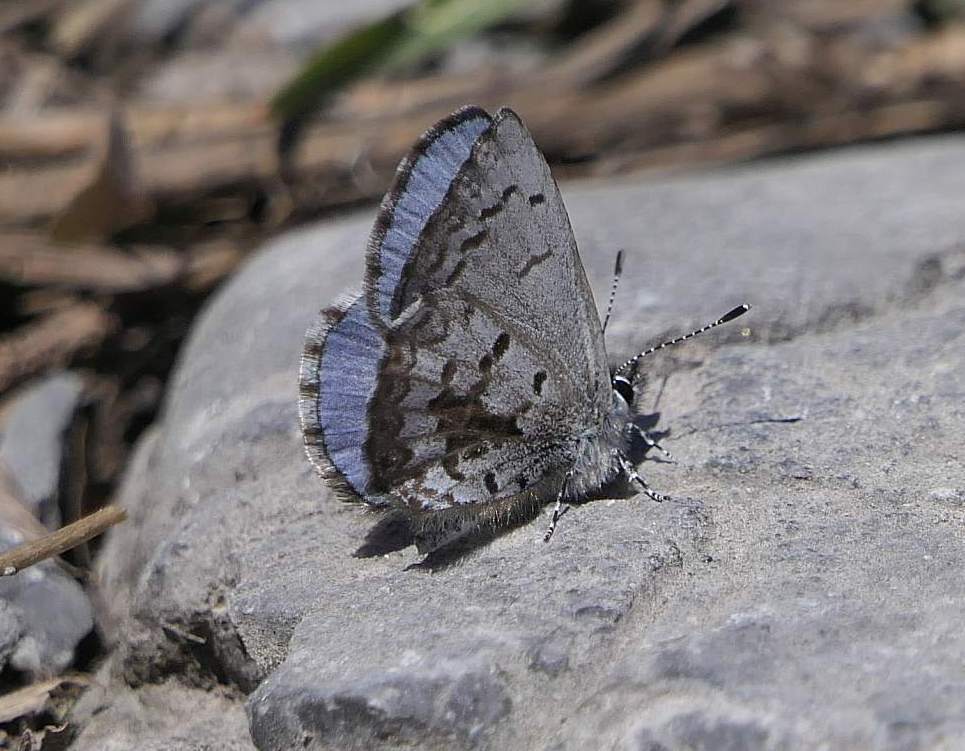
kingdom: Animalia
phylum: Arthropoda
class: Insecta
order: Lepidoptera
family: Lycaenidae
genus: Celastrina
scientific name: Celastrina lucia
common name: Lucia azure
